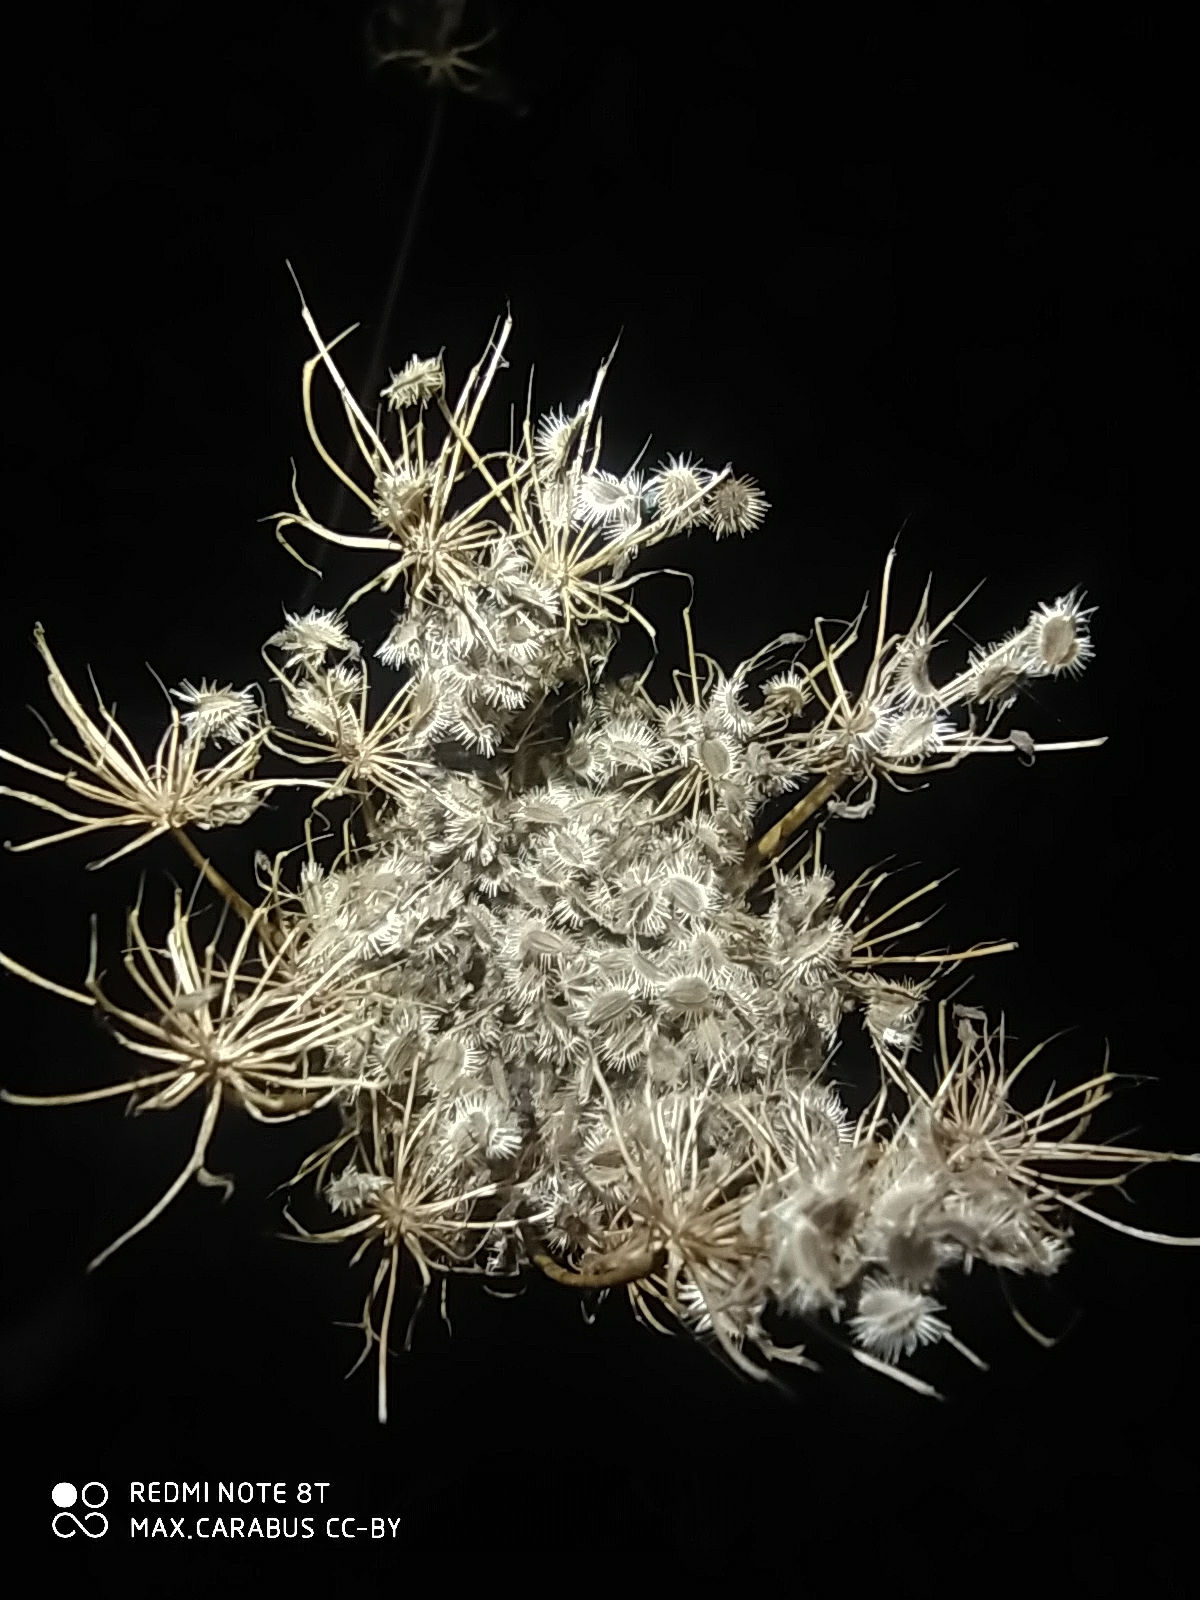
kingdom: Plantae
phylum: Tracheophyta
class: Magnoliopsida
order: Apiales
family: Apiaceae
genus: Daucus
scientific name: Daucus carota
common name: Wild carrot
